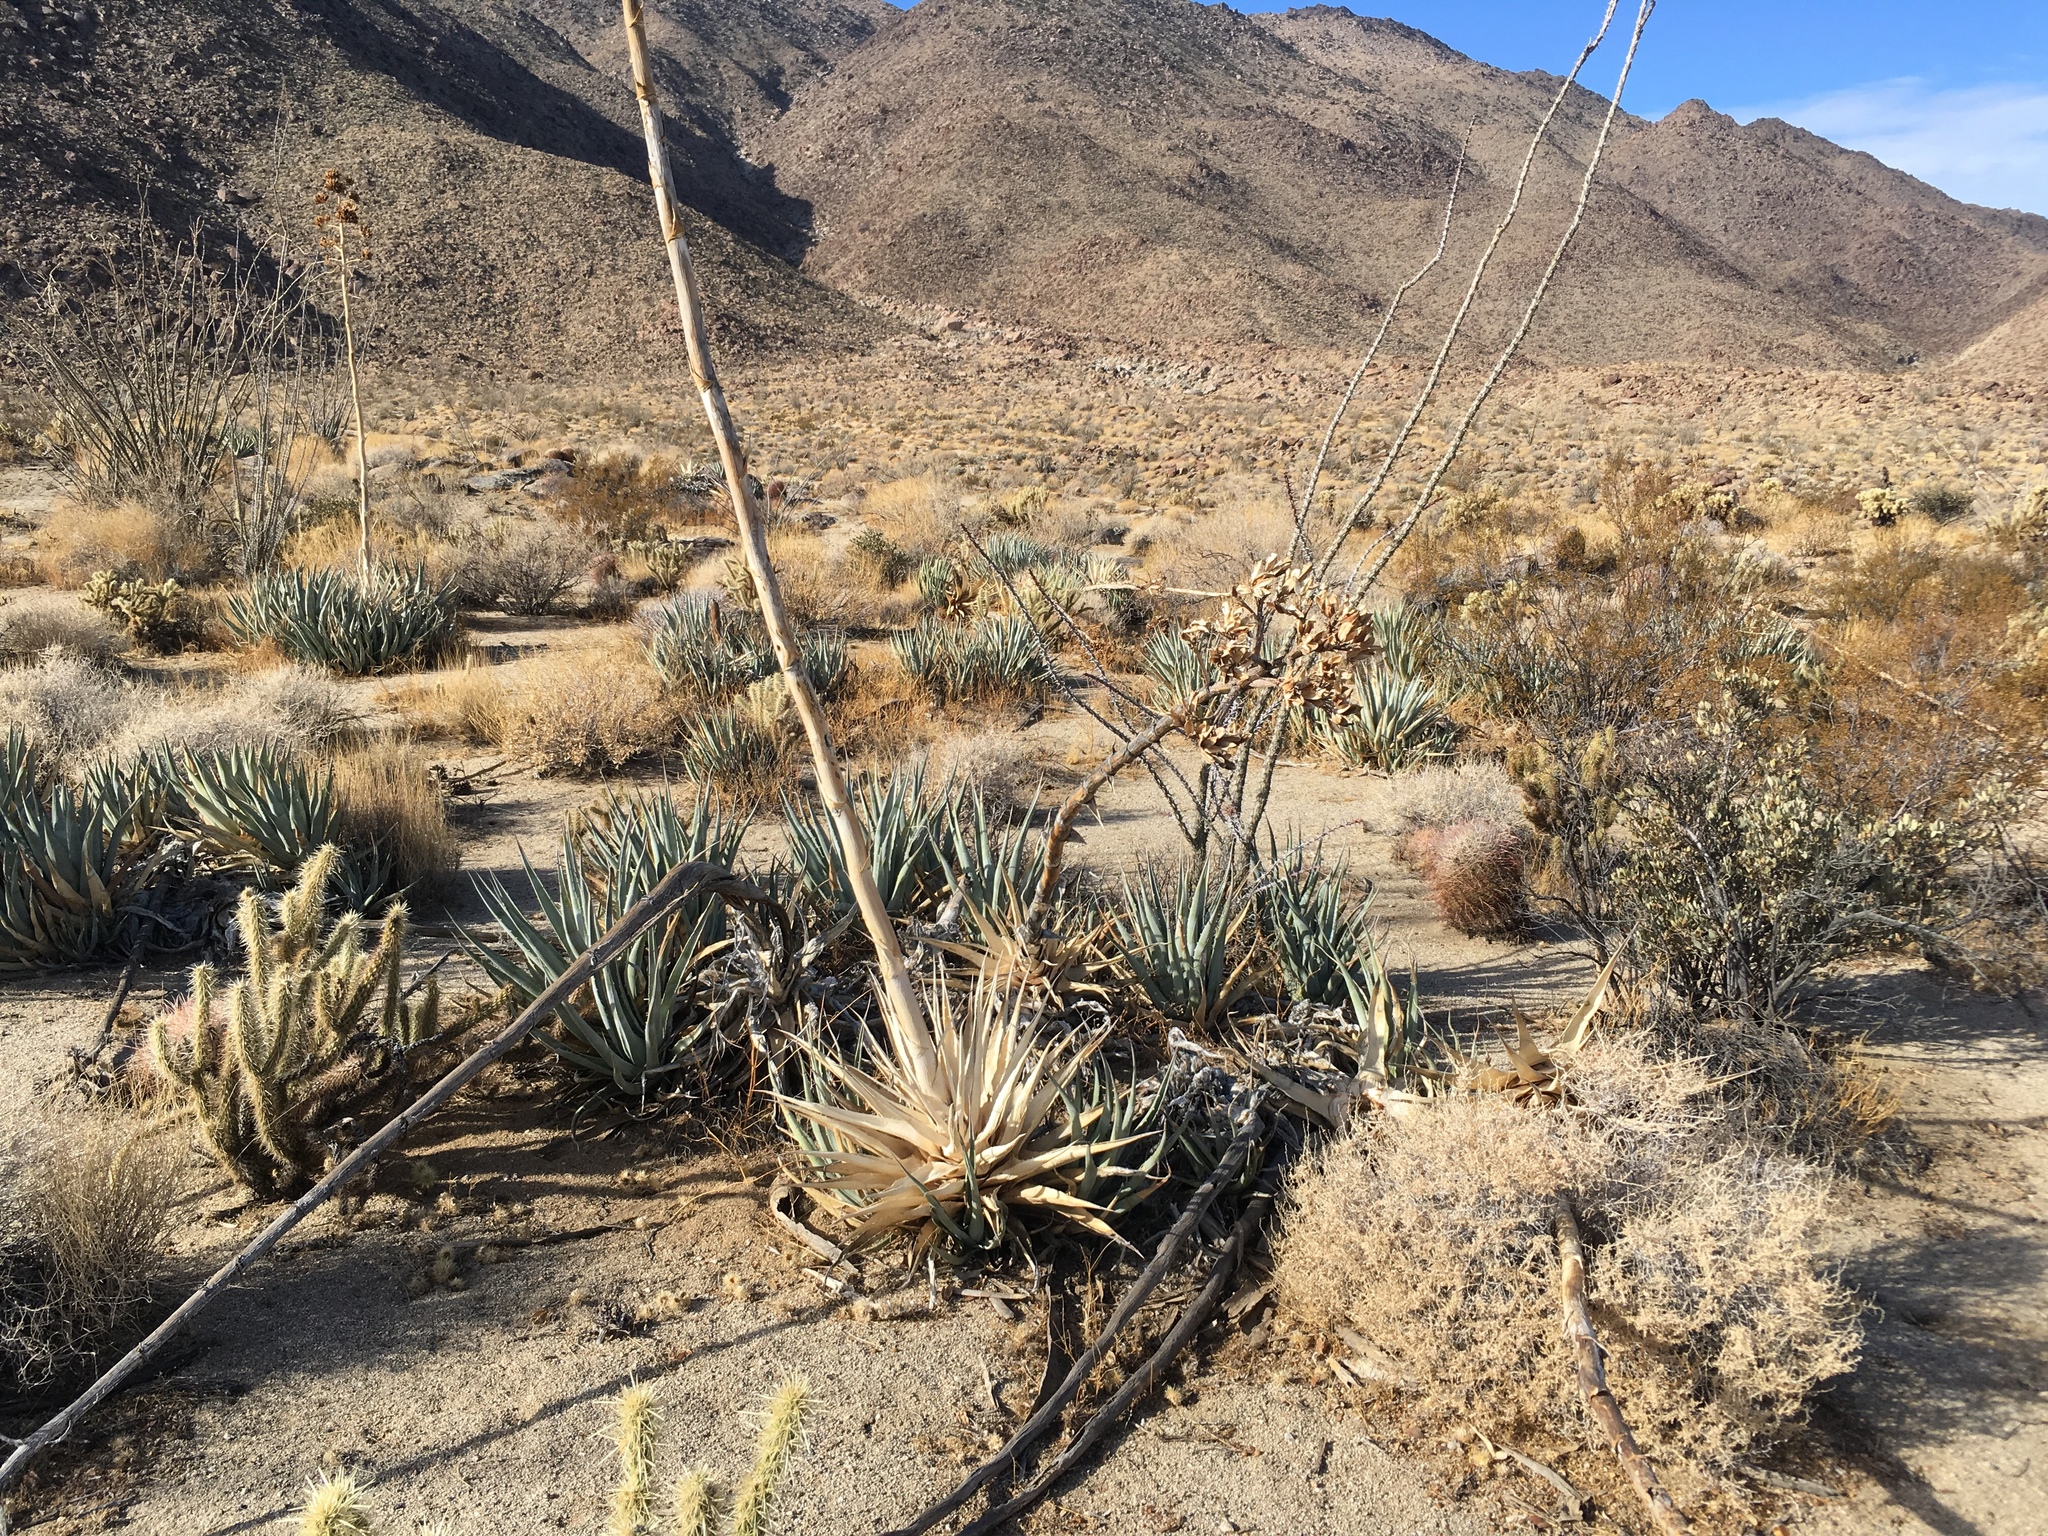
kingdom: Plantae
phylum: Tracheophyta
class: Liliopsida
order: Asparagales
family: Asparagaceae
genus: Agave
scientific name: Agave deserti
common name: Desert agave
